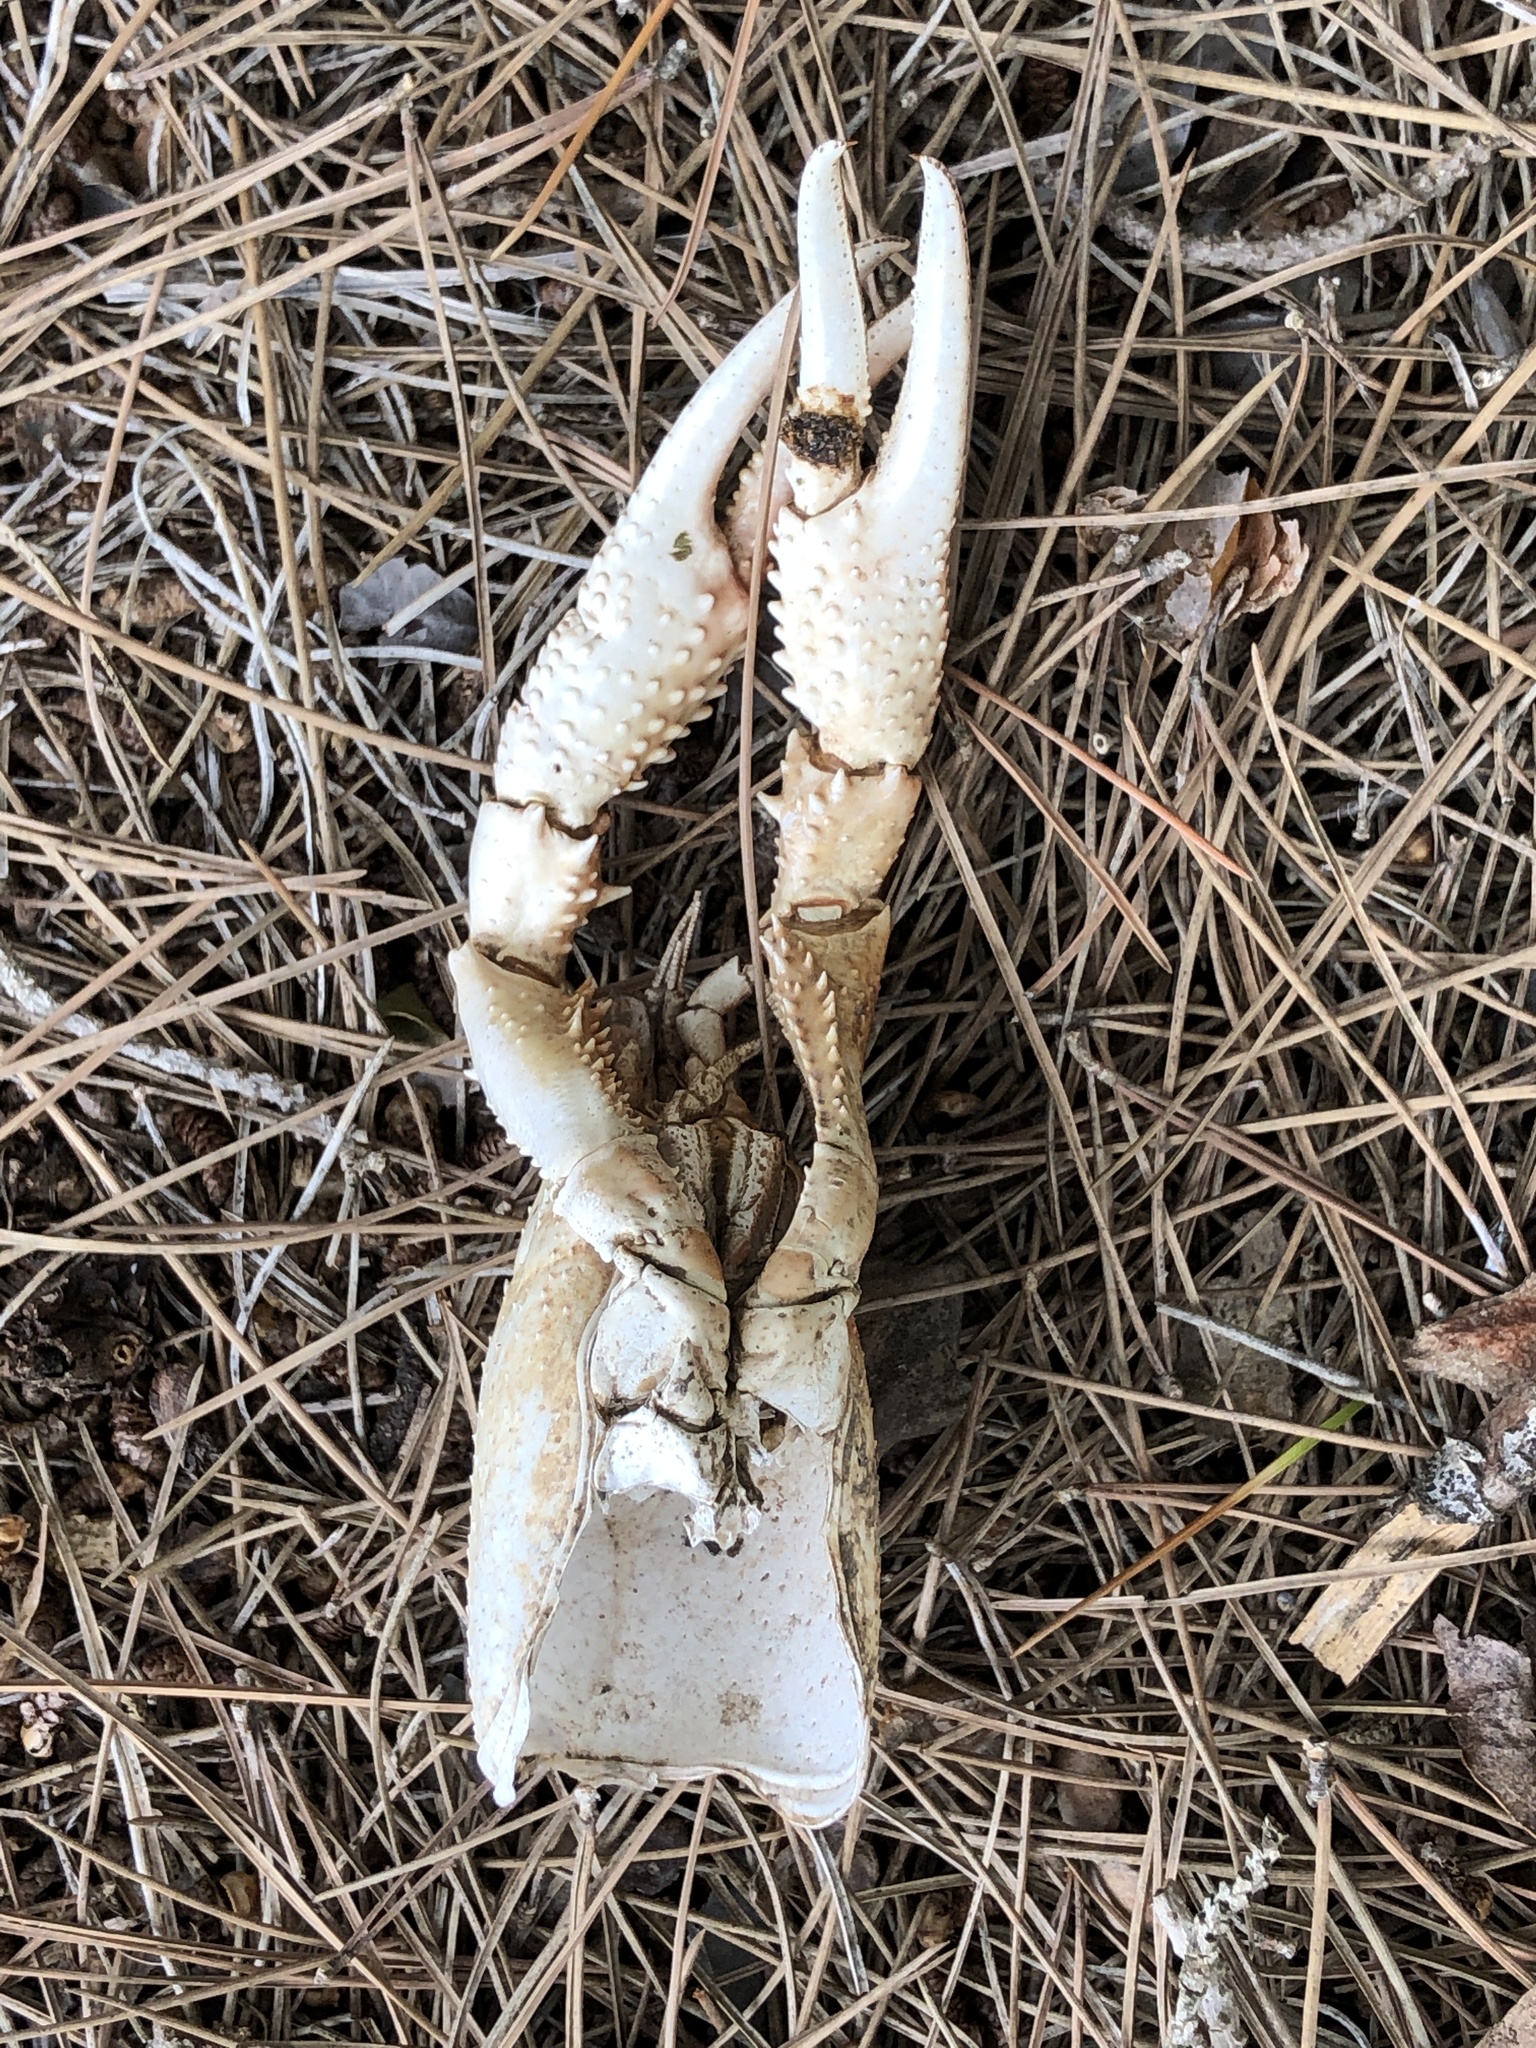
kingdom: Animalia
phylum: Arthropoda
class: Malacostraca
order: Decapoda
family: Cambaridae
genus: Procambarus
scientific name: Procambarus clarkii
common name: Red swamp crayfish
